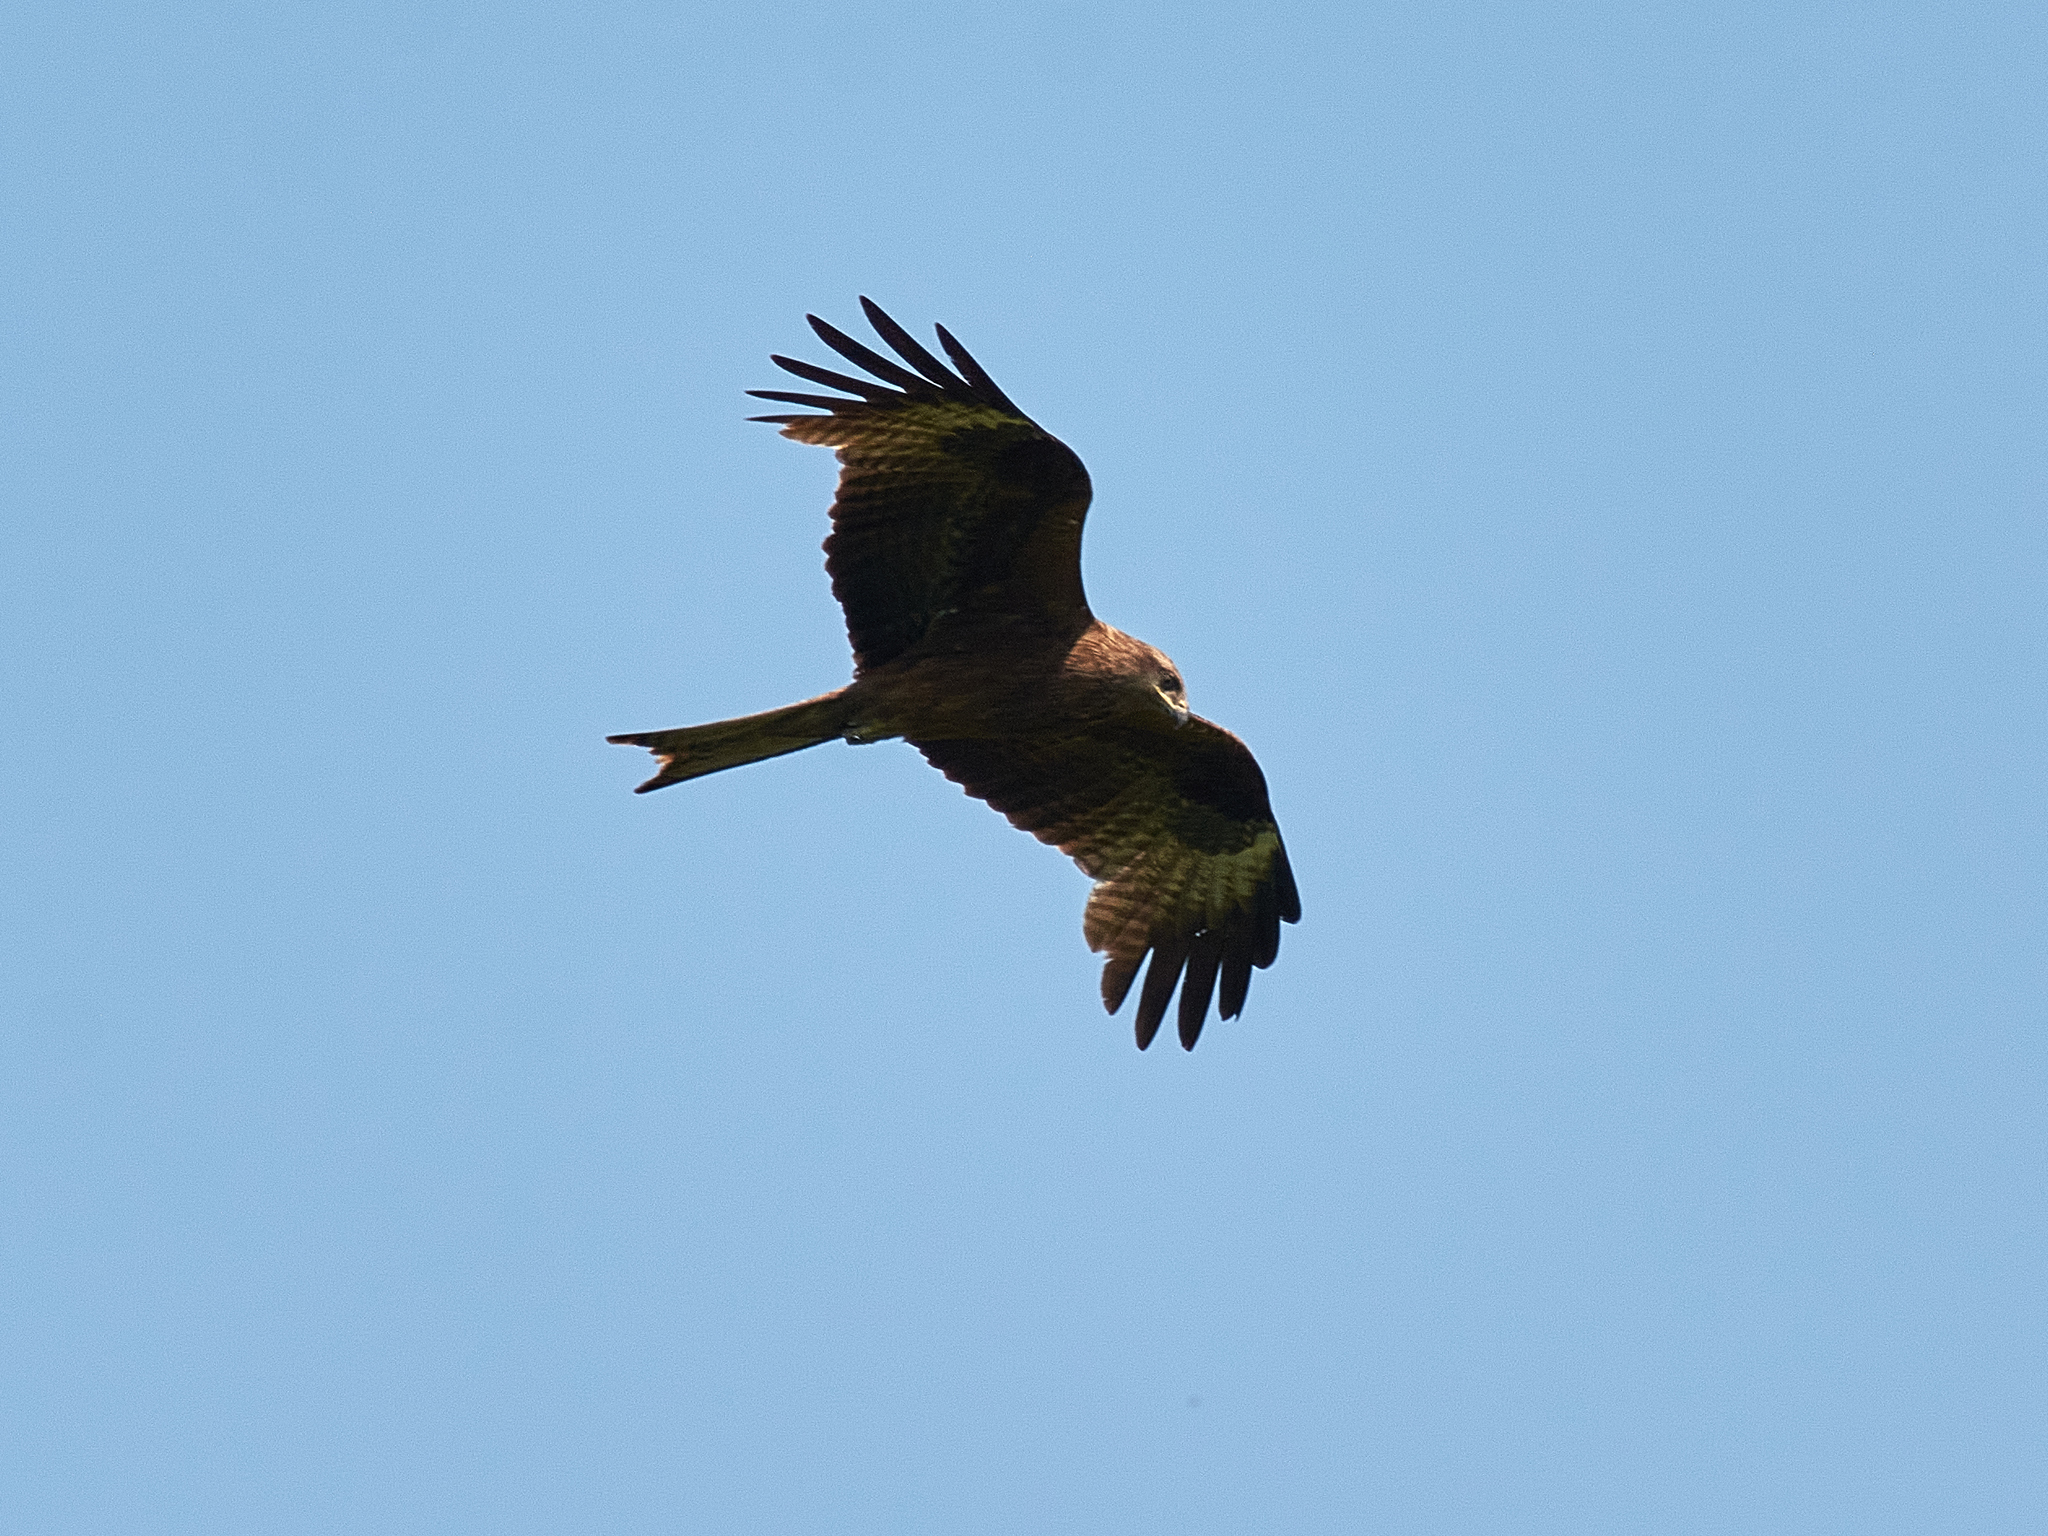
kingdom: Animalia
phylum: Chordata
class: Aves
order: Accipitriformes
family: Accipitridae
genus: Milvus
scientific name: Milvus migrans
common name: Black kite
